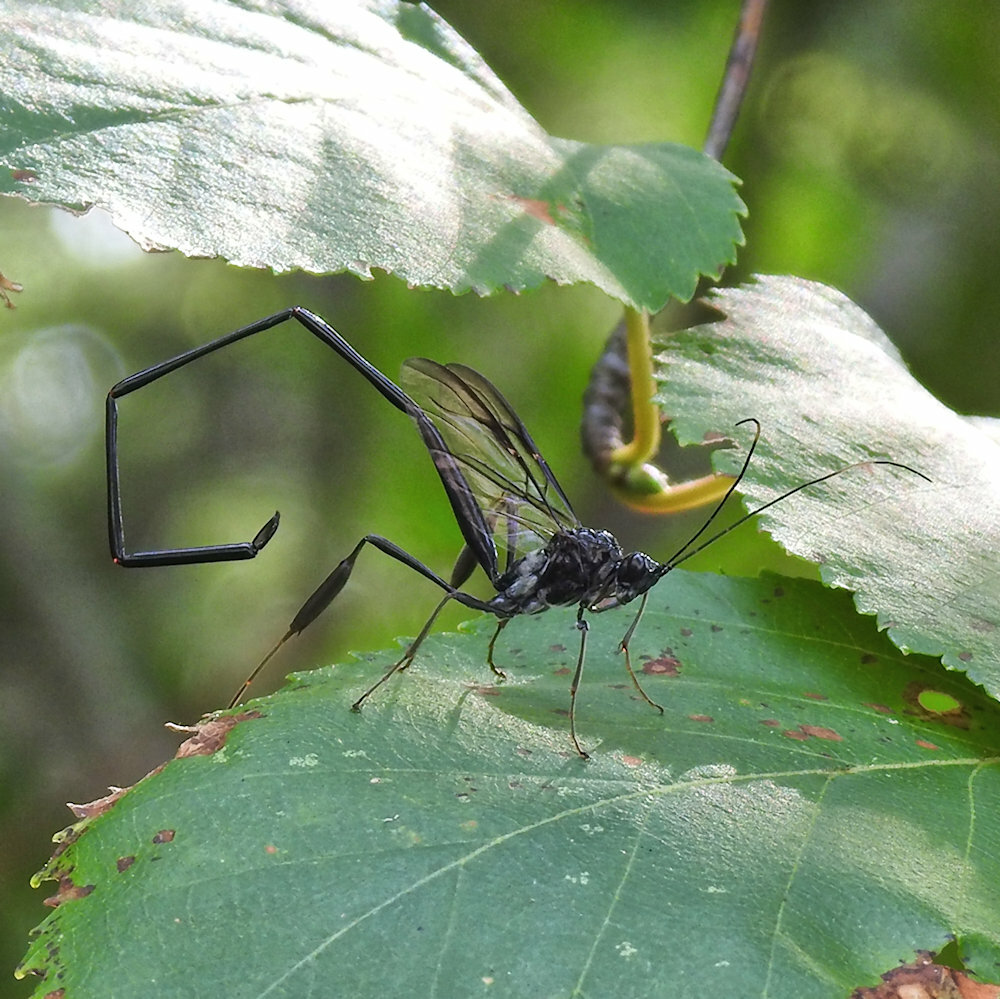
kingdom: Animalia
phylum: Arthropoda
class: Insecta
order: Hymenoptera
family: Pelecinidae
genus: Pelecinus
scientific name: Pelecinus polyturator
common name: American pelecinid wasp
